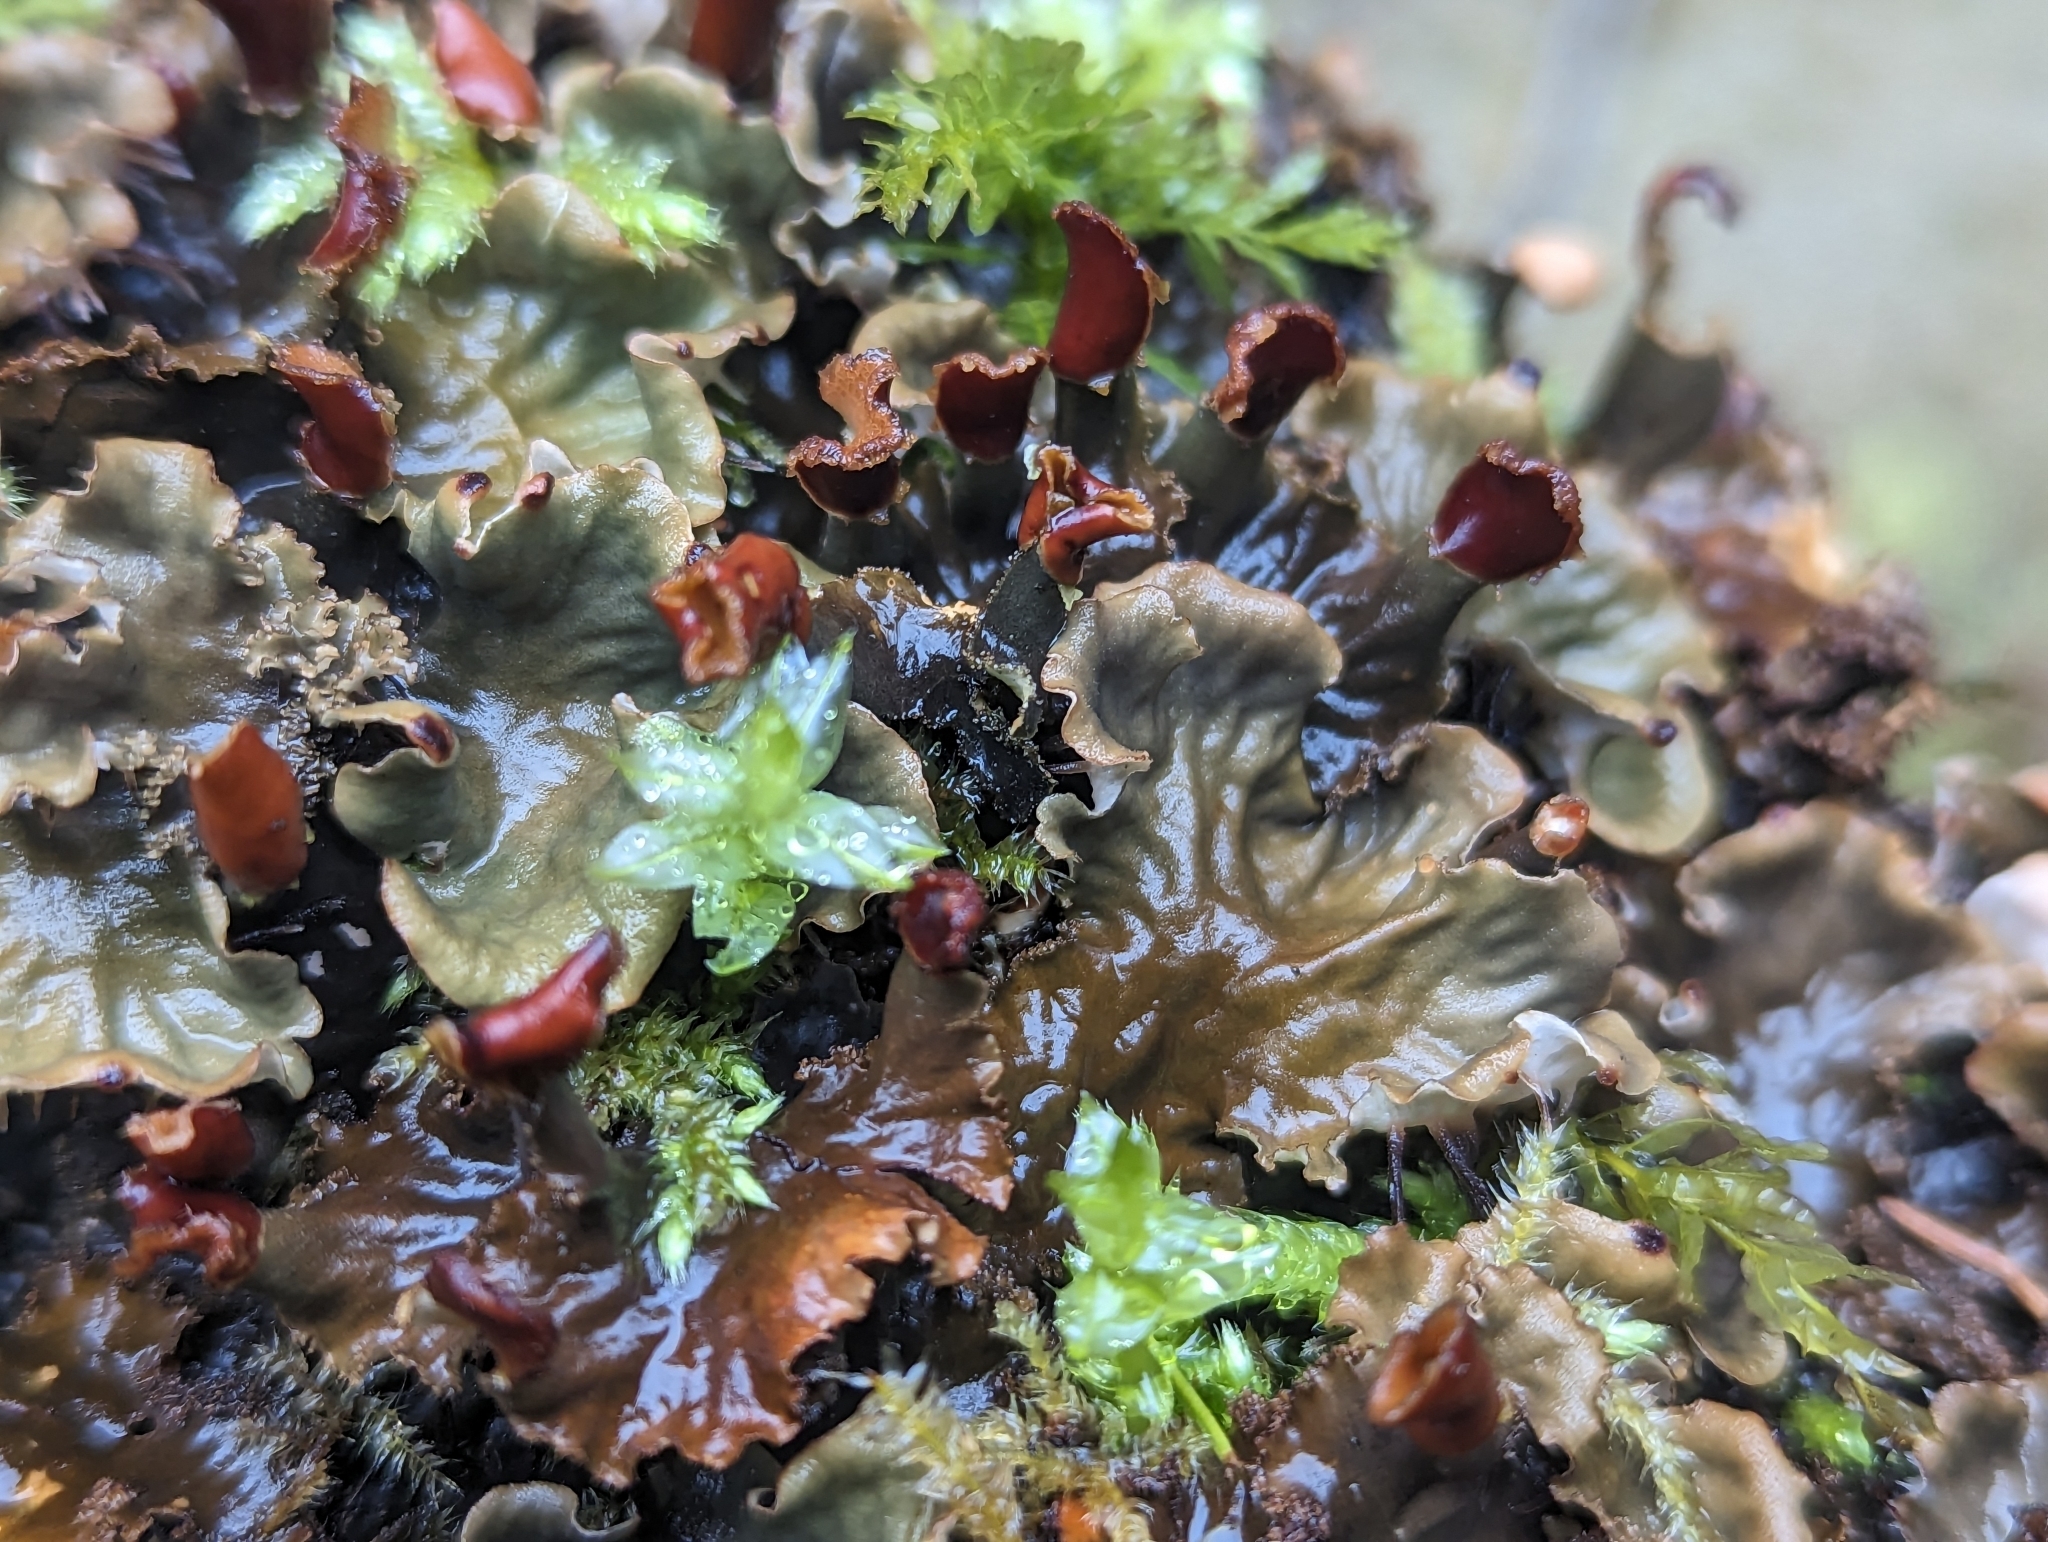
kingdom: Fungi
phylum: Ascomycota
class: Lecanoromycetes
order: Peltigerales
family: Peltigeraceae
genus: Peltigera
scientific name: Peltigera praetextata
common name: Scaly dog-lichen
